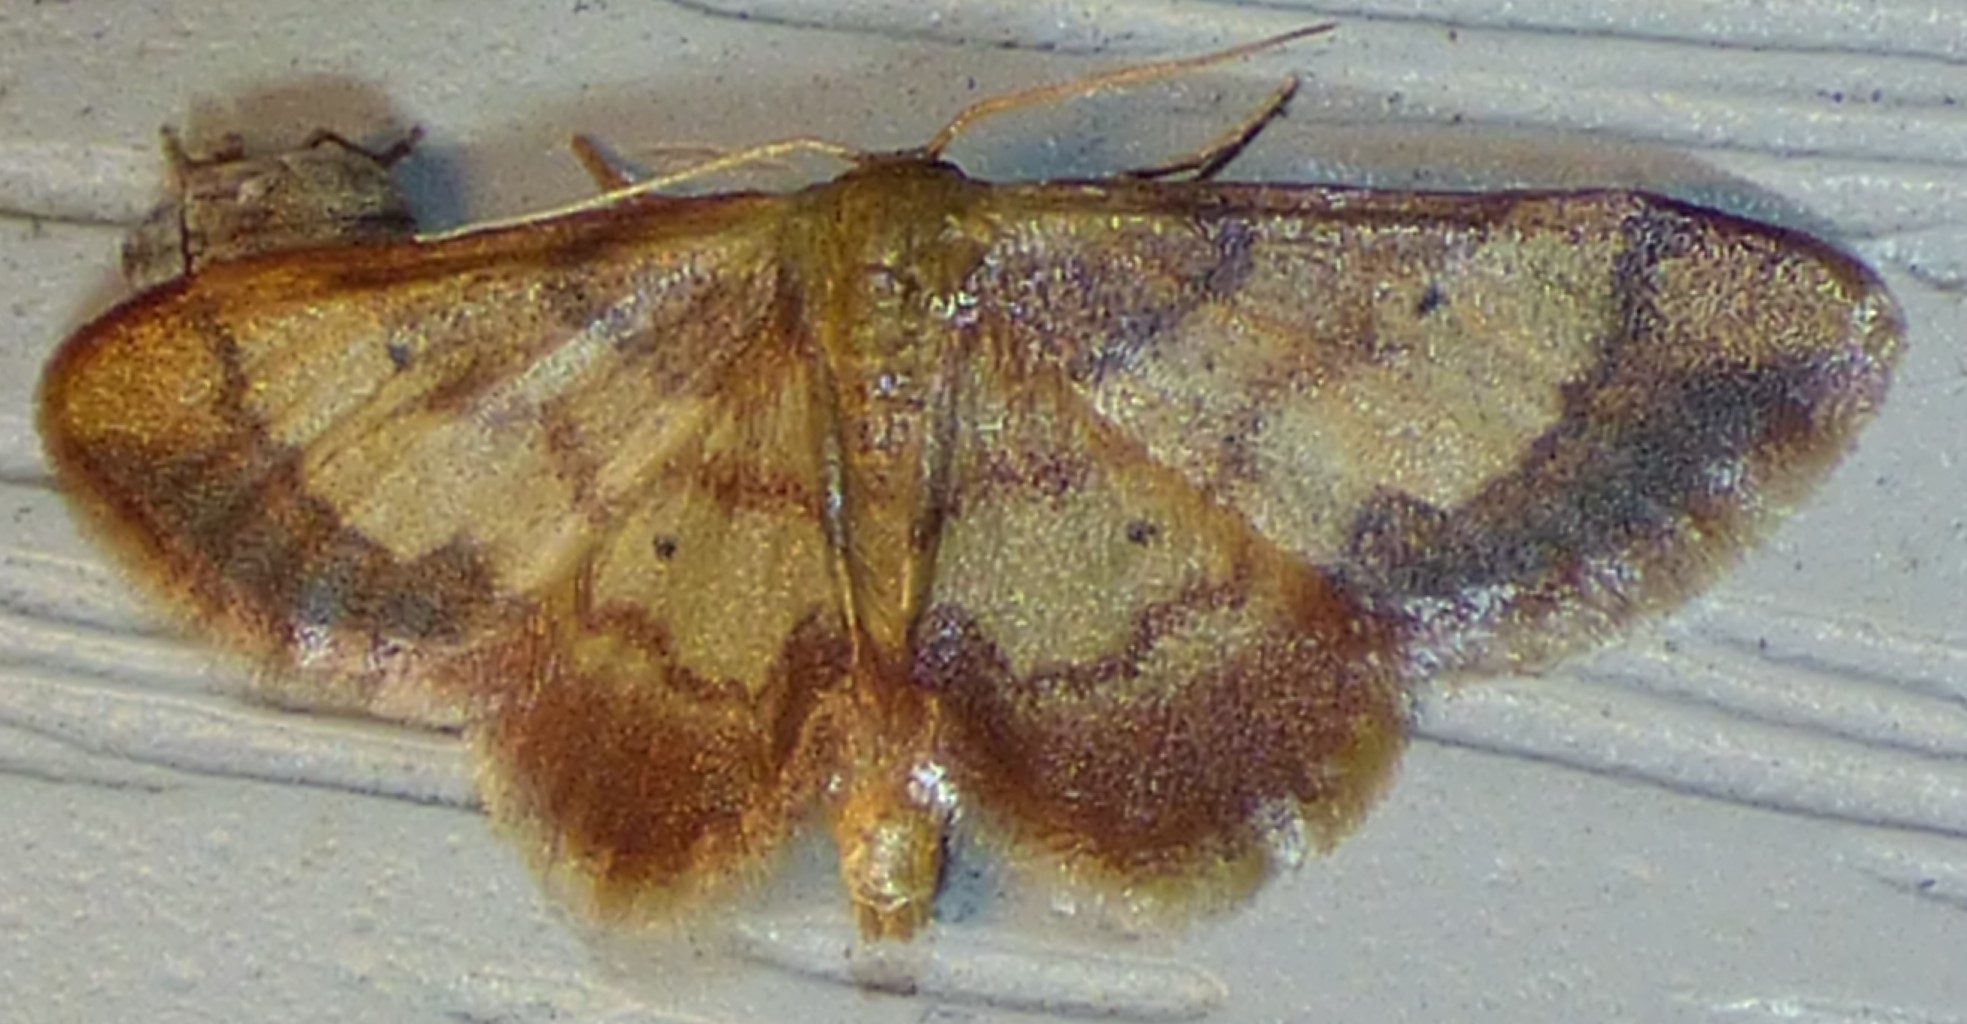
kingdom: Animalia
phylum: Arthropoda
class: Insecta
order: Lepidoptera
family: Geometridae
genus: Idaea
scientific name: Idaea demissaria
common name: Red-bordered wave
